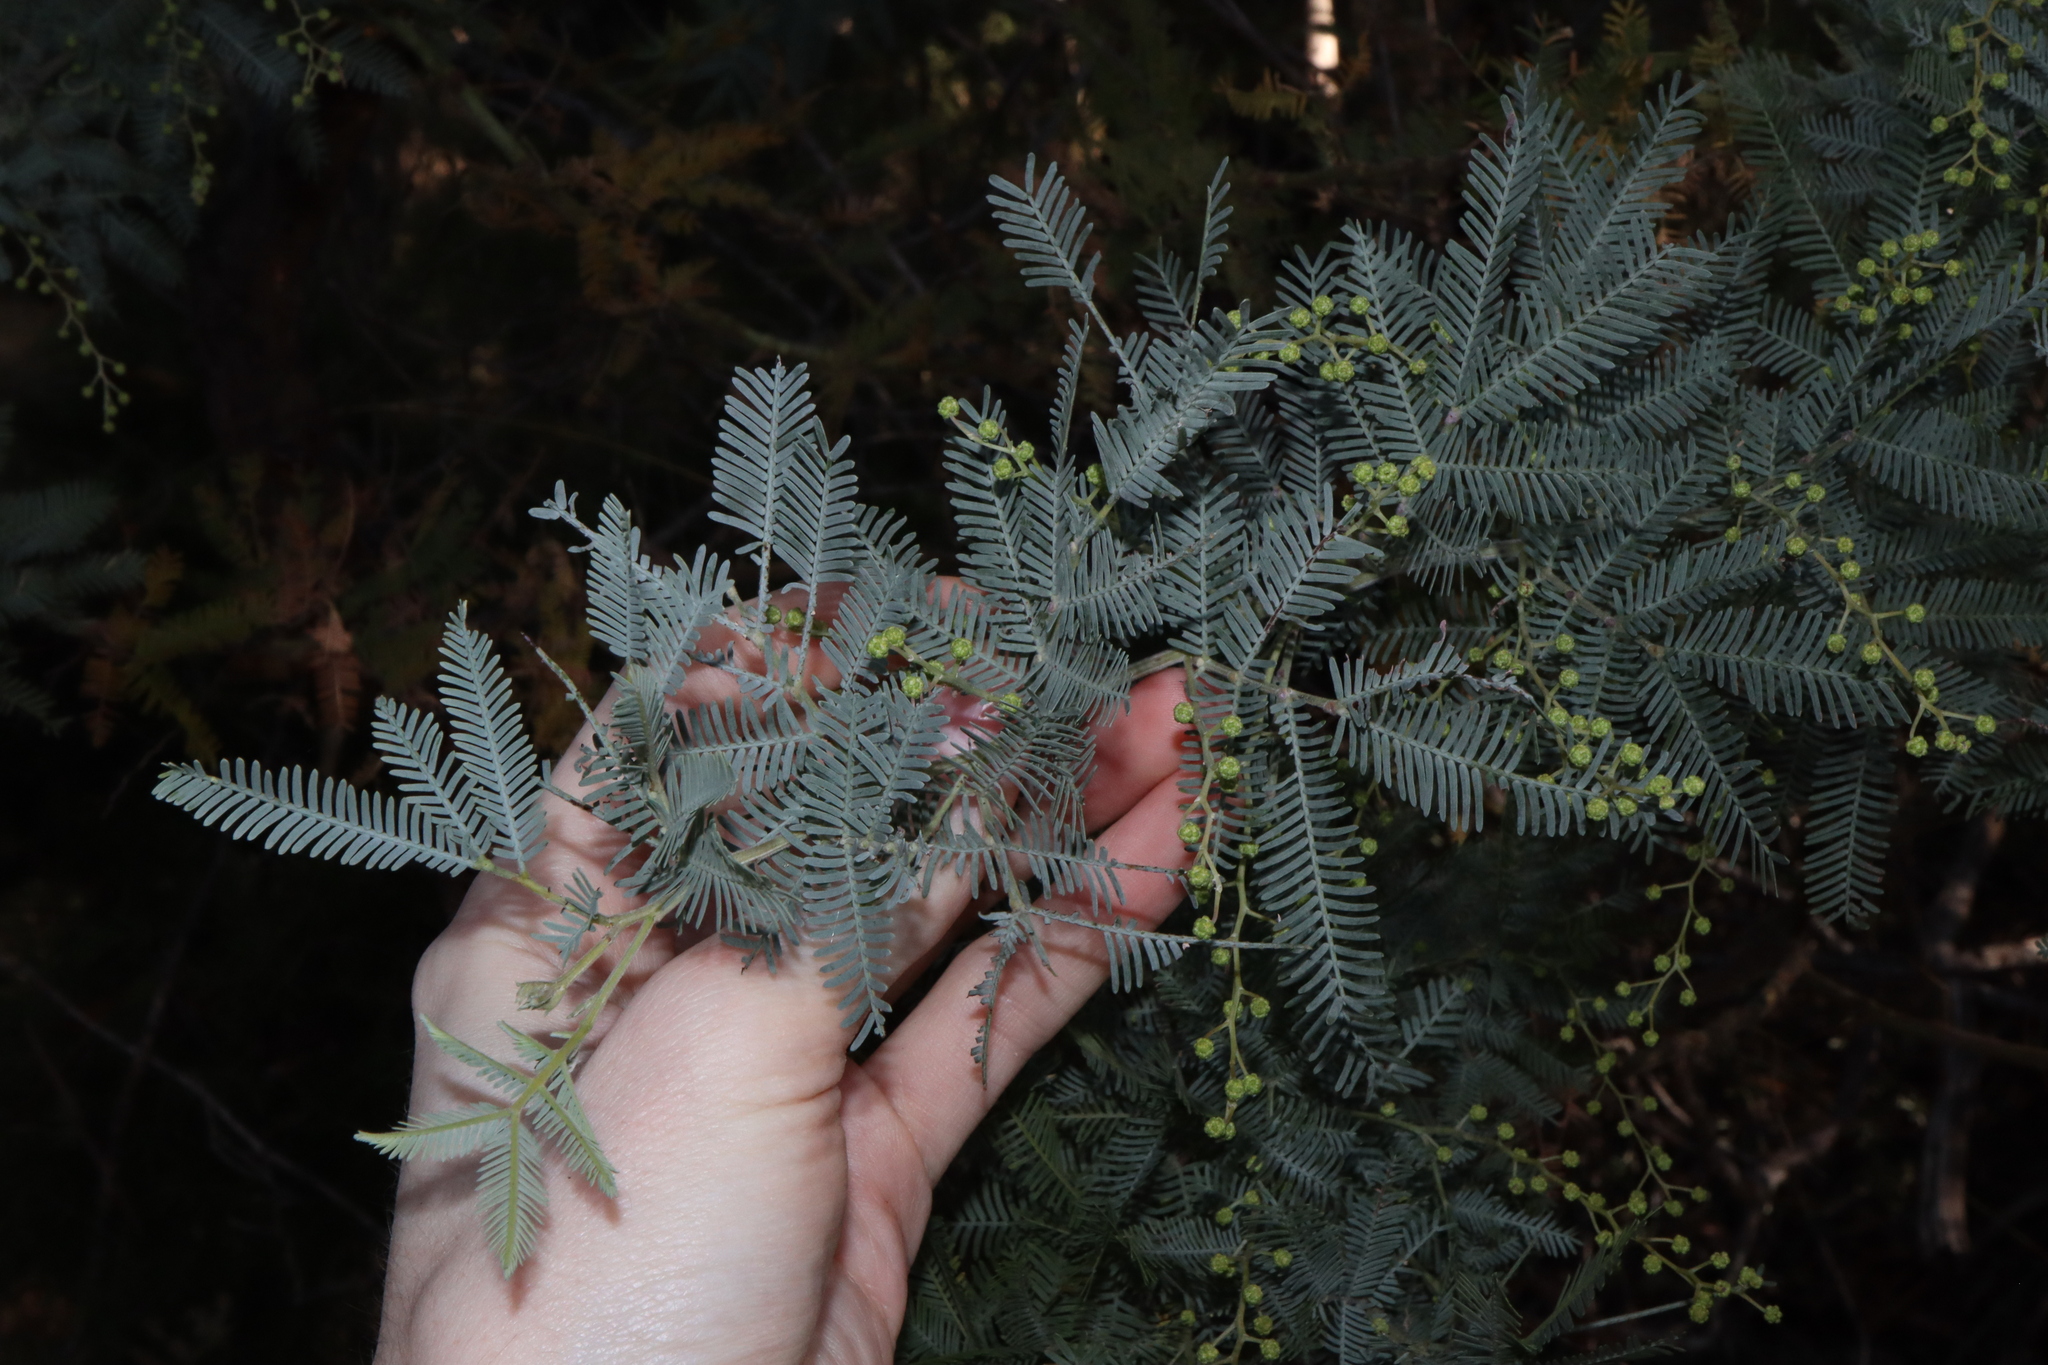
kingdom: Plantae
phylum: Tracheophyta
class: Magnoliopsida
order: Fabales
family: Fabaceae
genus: Acacia
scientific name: Acacia baileyana
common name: Cootamundra wattle
